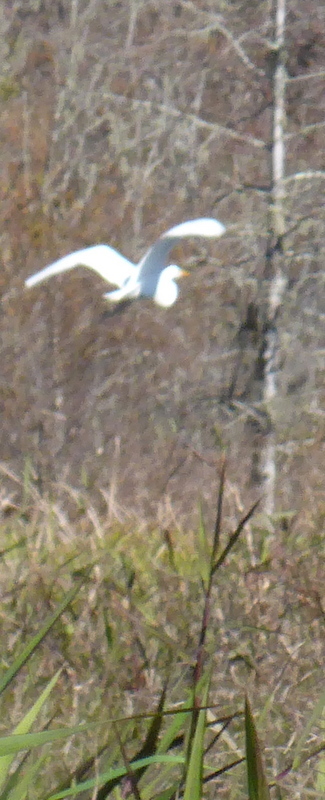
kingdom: Animalia
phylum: Chordata
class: Aves
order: Pelecaniformes
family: Ardeidae
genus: Ardea
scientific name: Ardea alba
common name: Great egret
